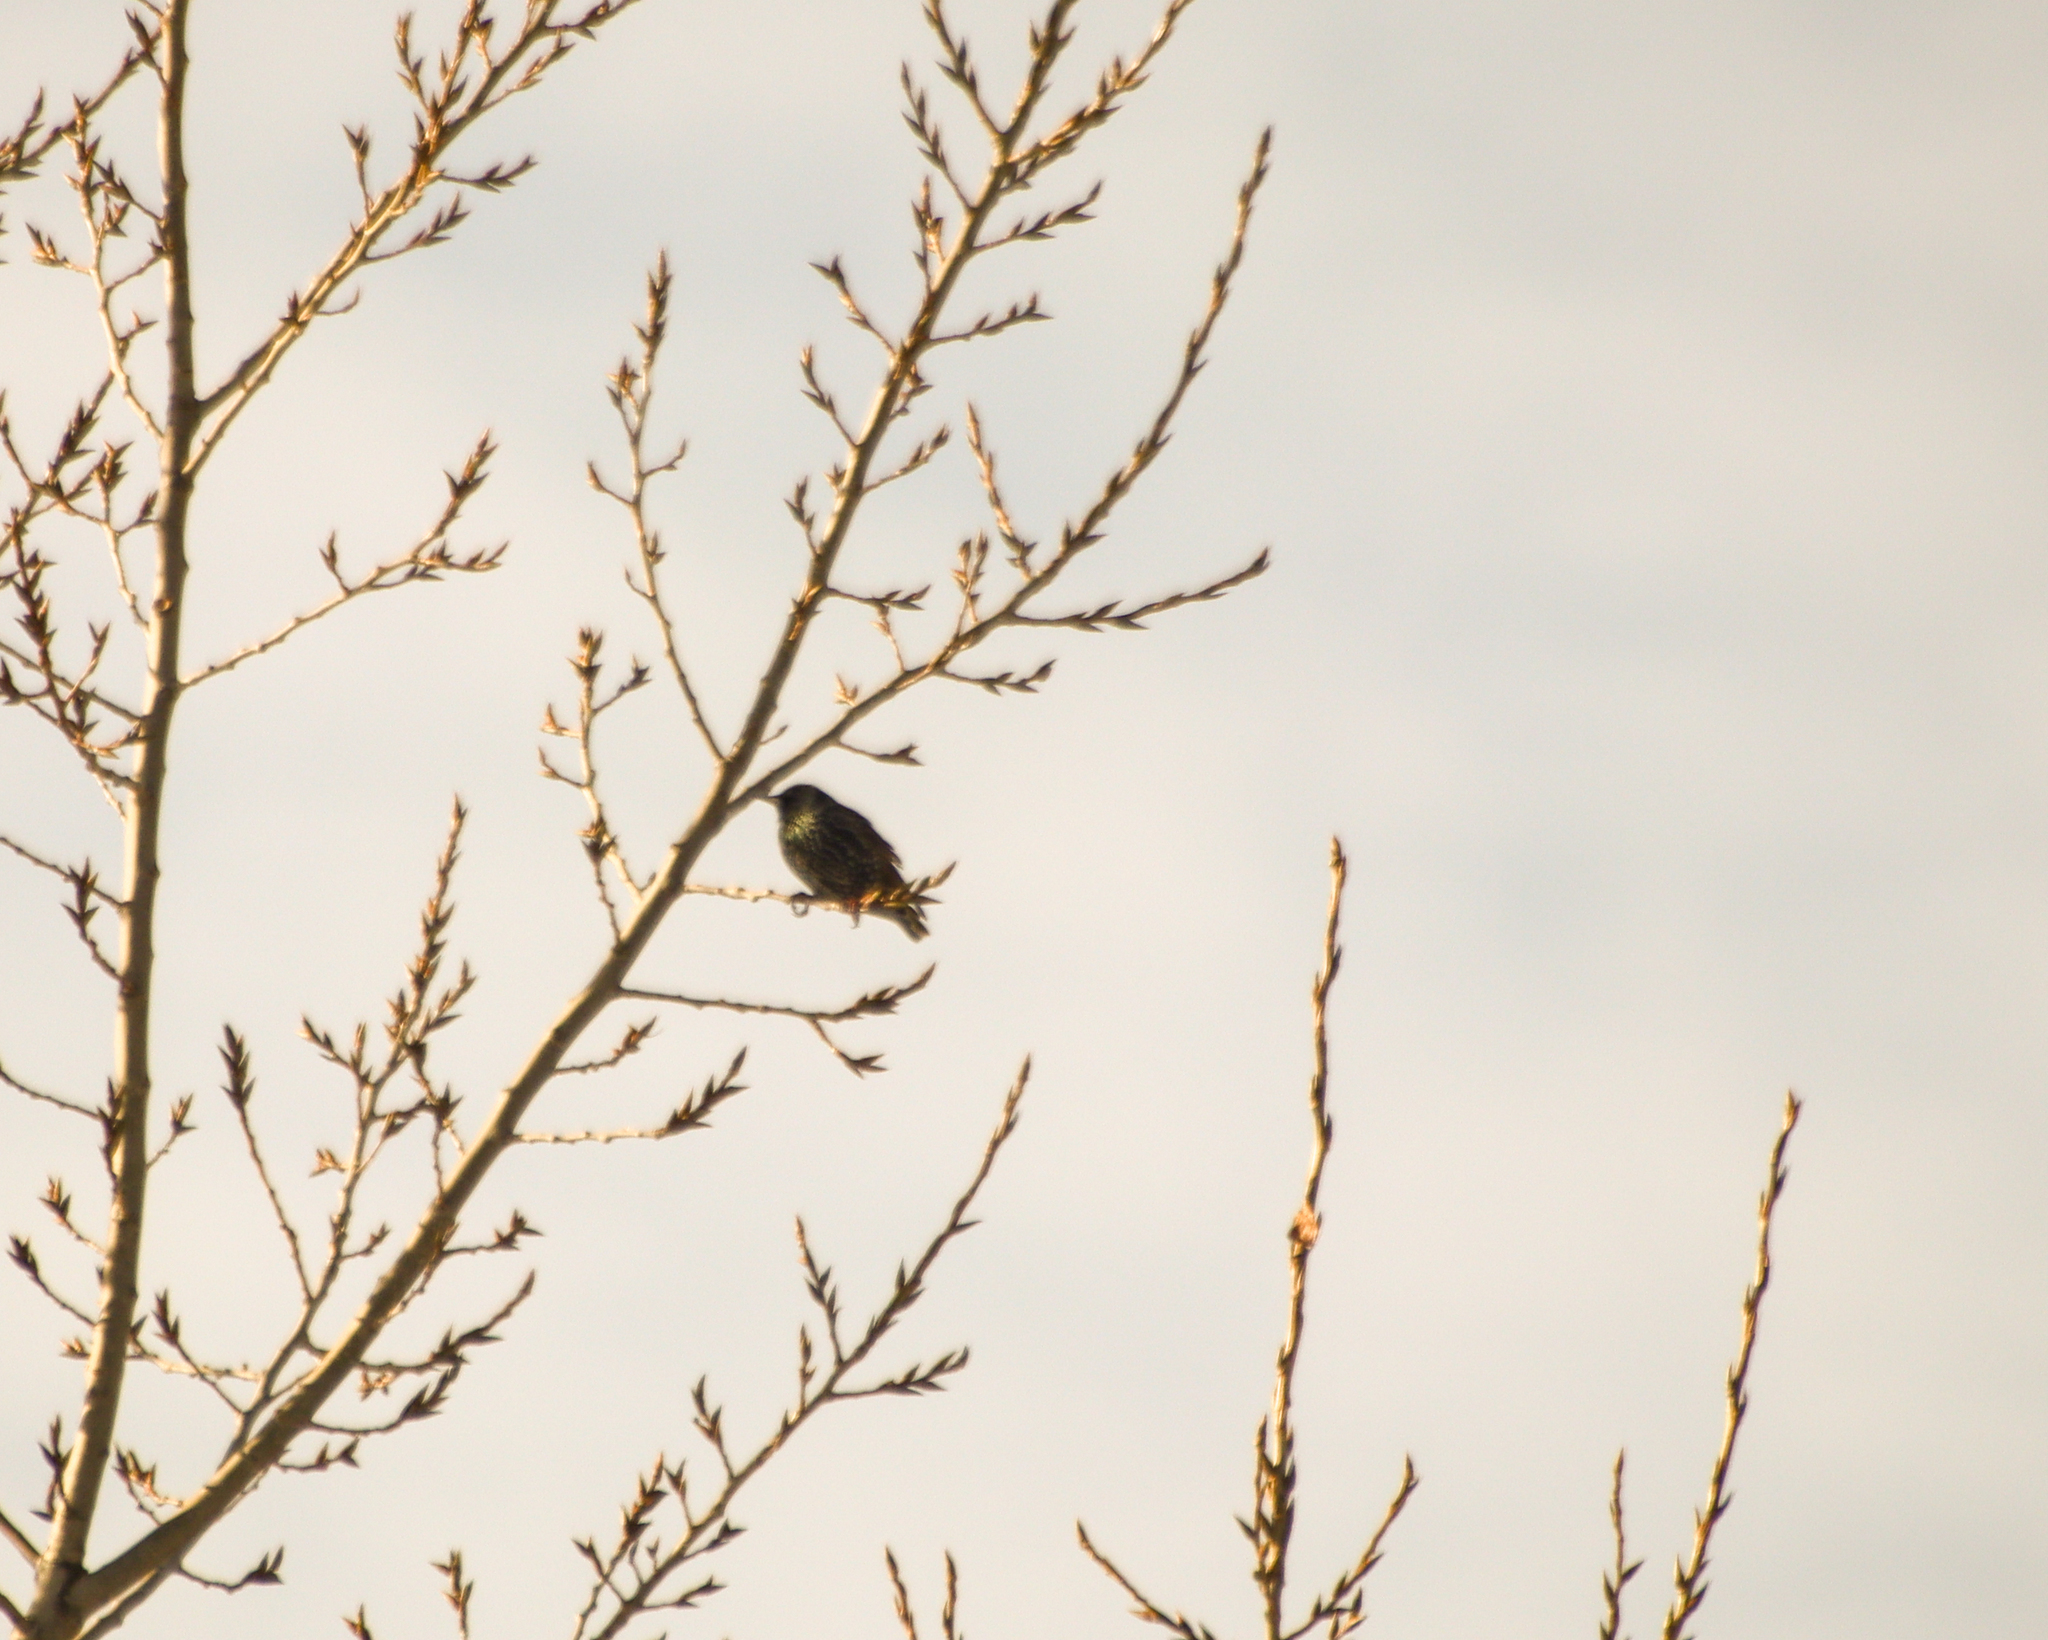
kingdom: Animalia
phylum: Chordata
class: Aves
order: Passeriformes
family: Sturnidae
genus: Sturnus
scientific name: Sturnus vulgaris
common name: Common starling
